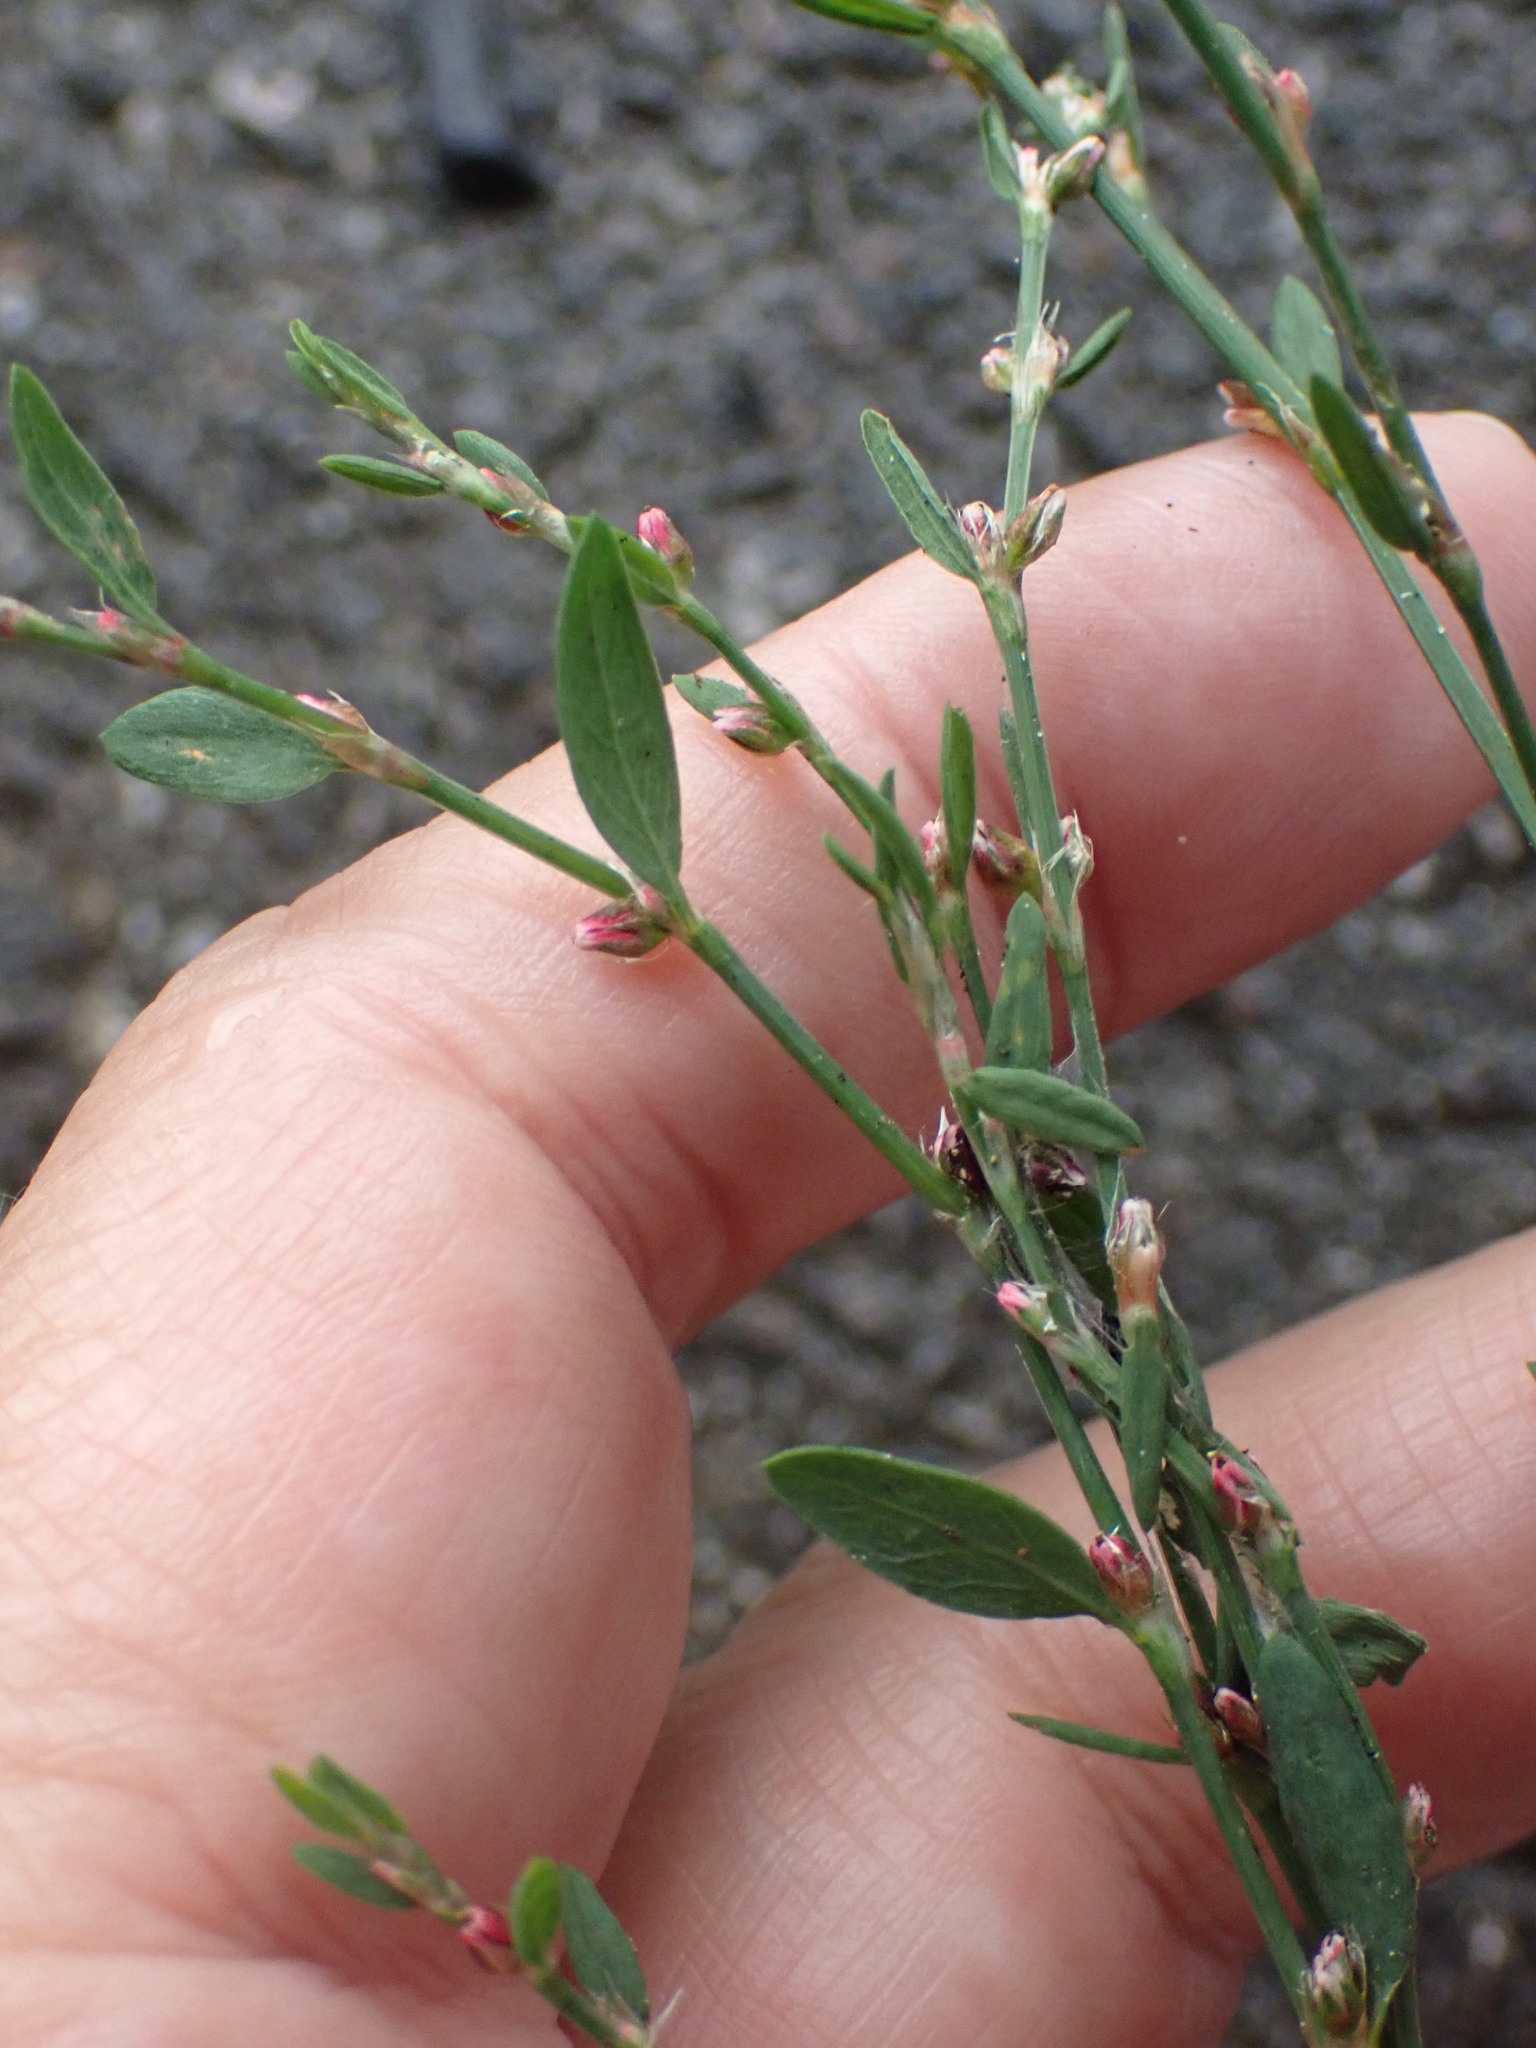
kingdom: Plantae
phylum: Tracheophyta
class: Magnoliopsida
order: Caryophyllales
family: Polygonaceae
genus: Polygonum
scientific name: Polygonum aviculare
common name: Prostrate knotweed
